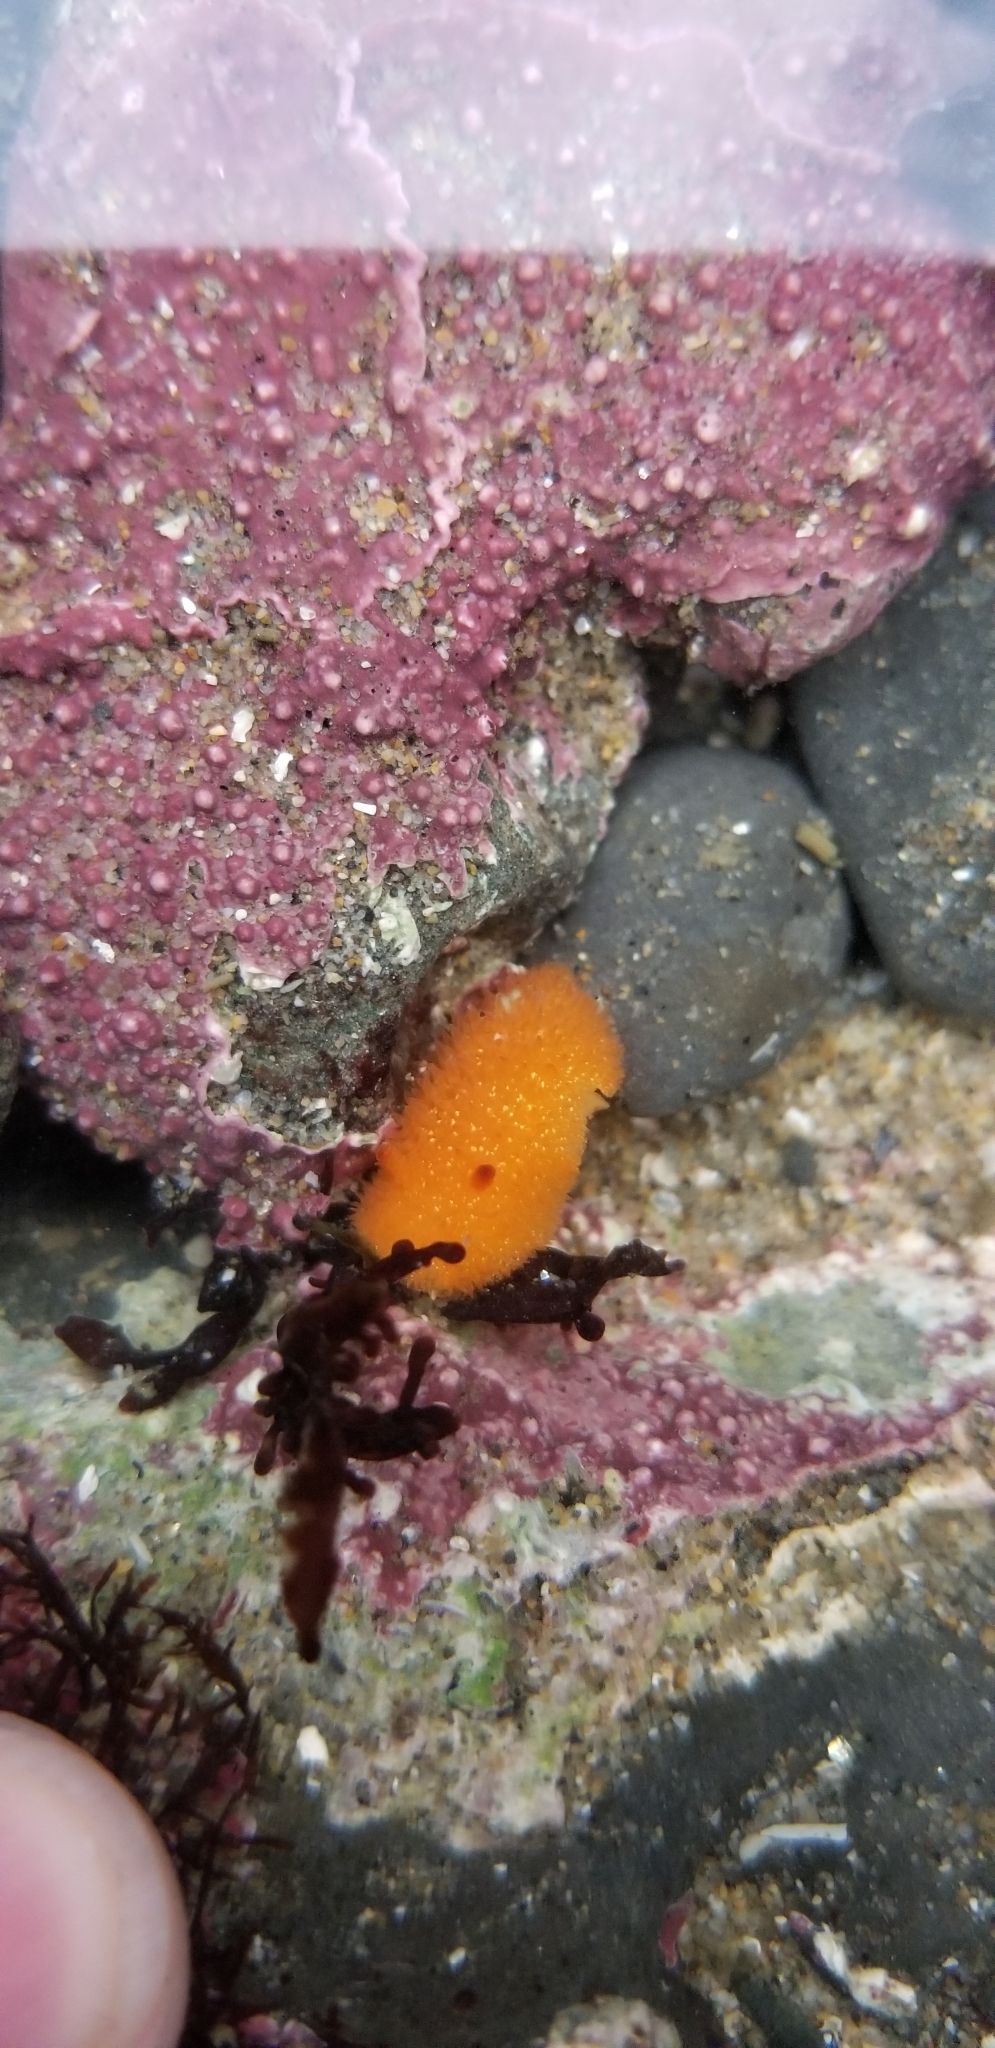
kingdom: Animalia
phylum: Mollusca
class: Gastropoda
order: Nudibranchia
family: Onchidorididae
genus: Acanthodoris
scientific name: Acanthodoris lutea
